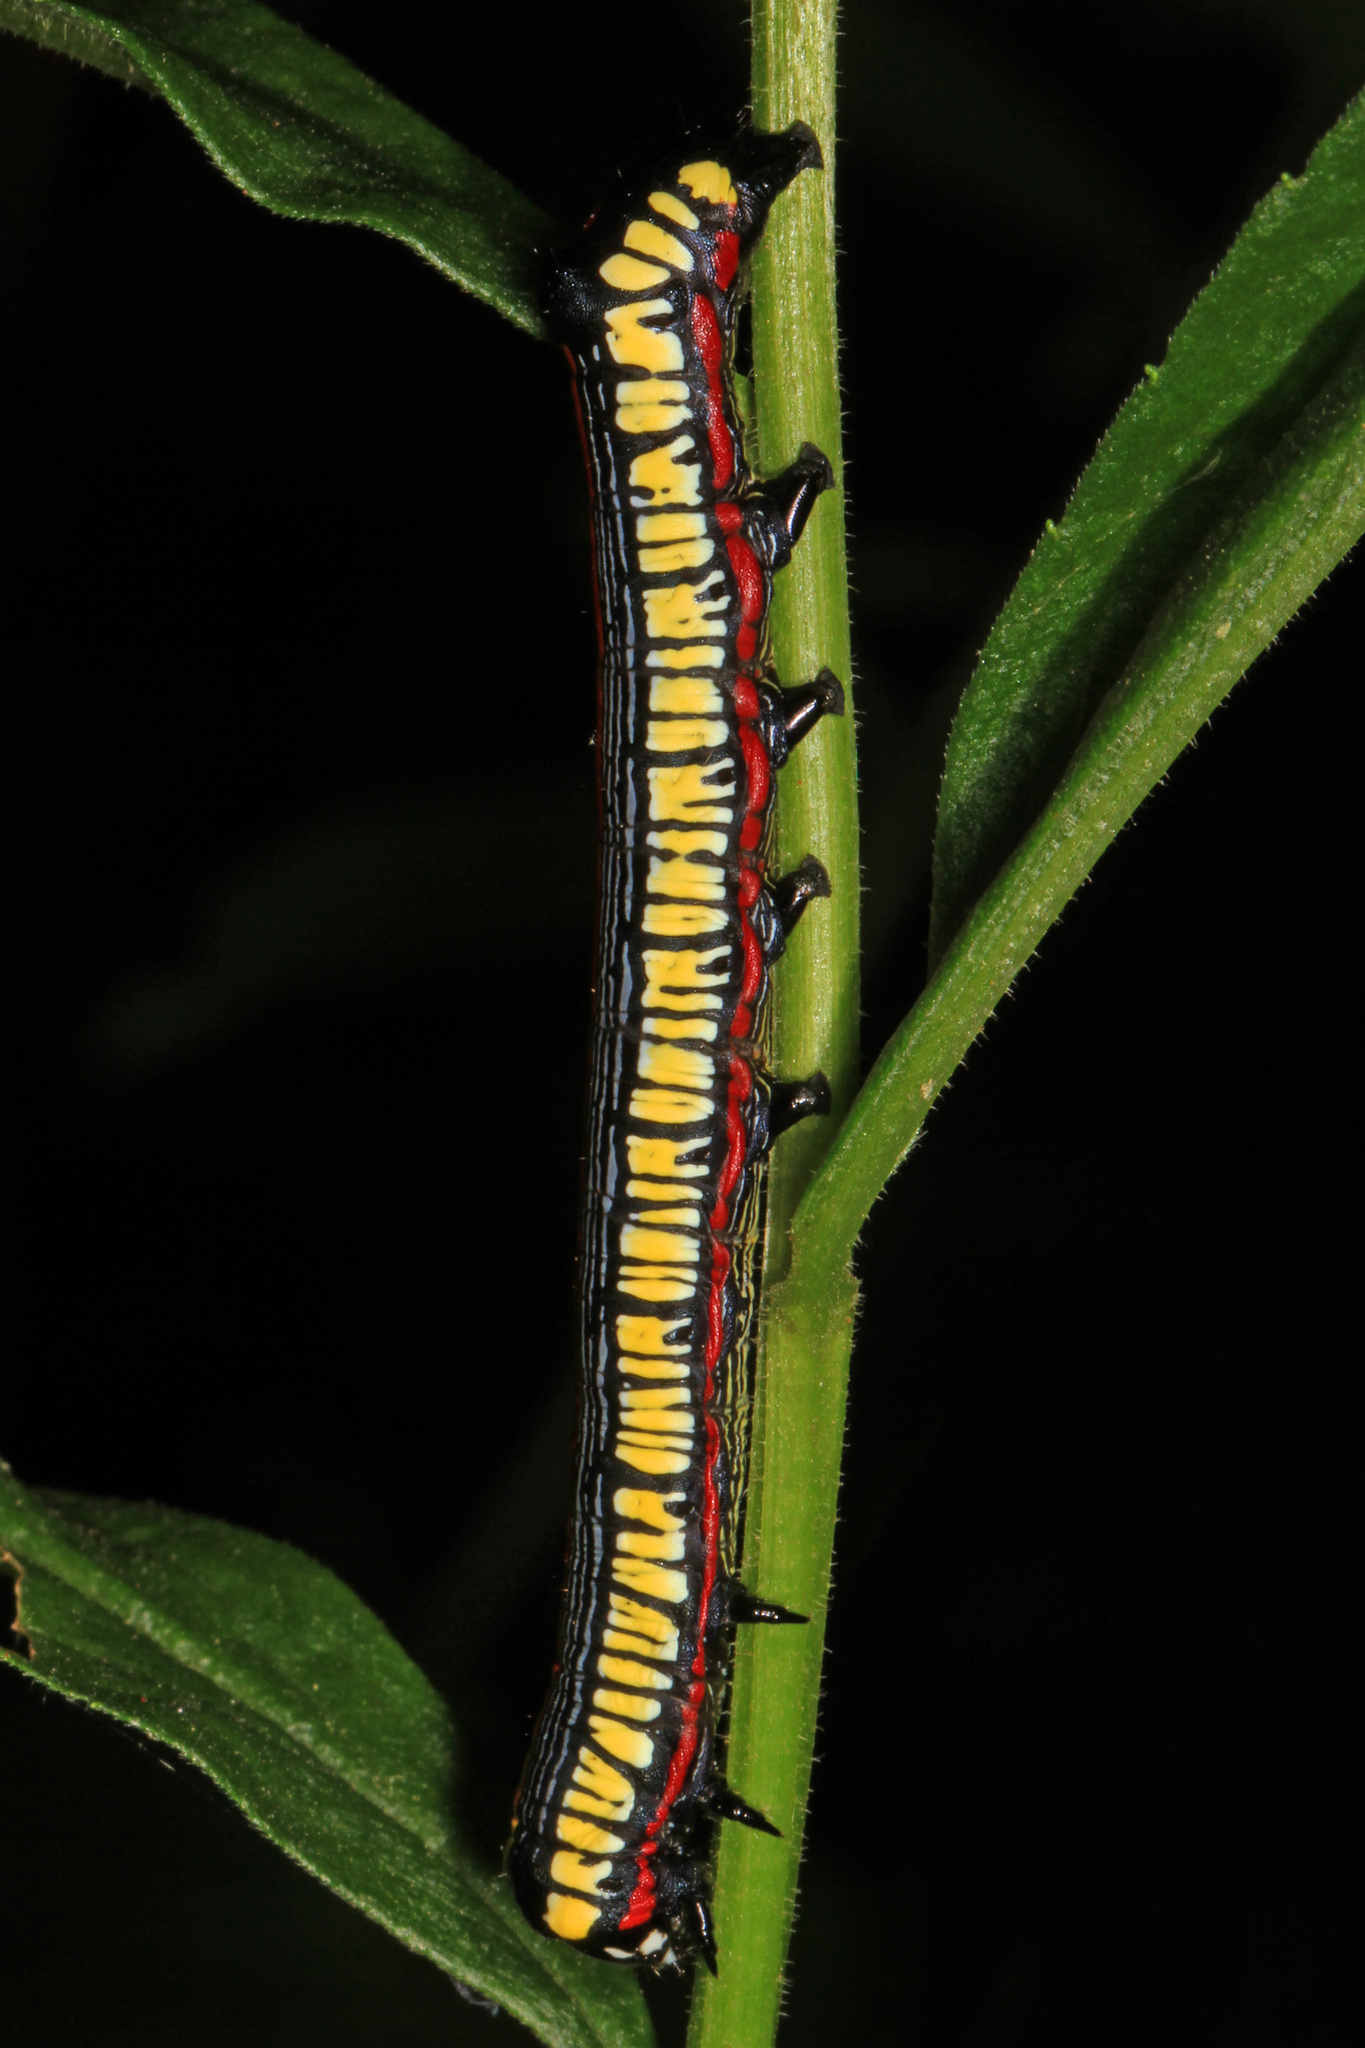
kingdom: Animalia
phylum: Arthropoda
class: Insecta
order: Lepidoptera
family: Noctuidae
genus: Cucullia
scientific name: Cucullia convexipennis
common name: Brown-hooded owlet
